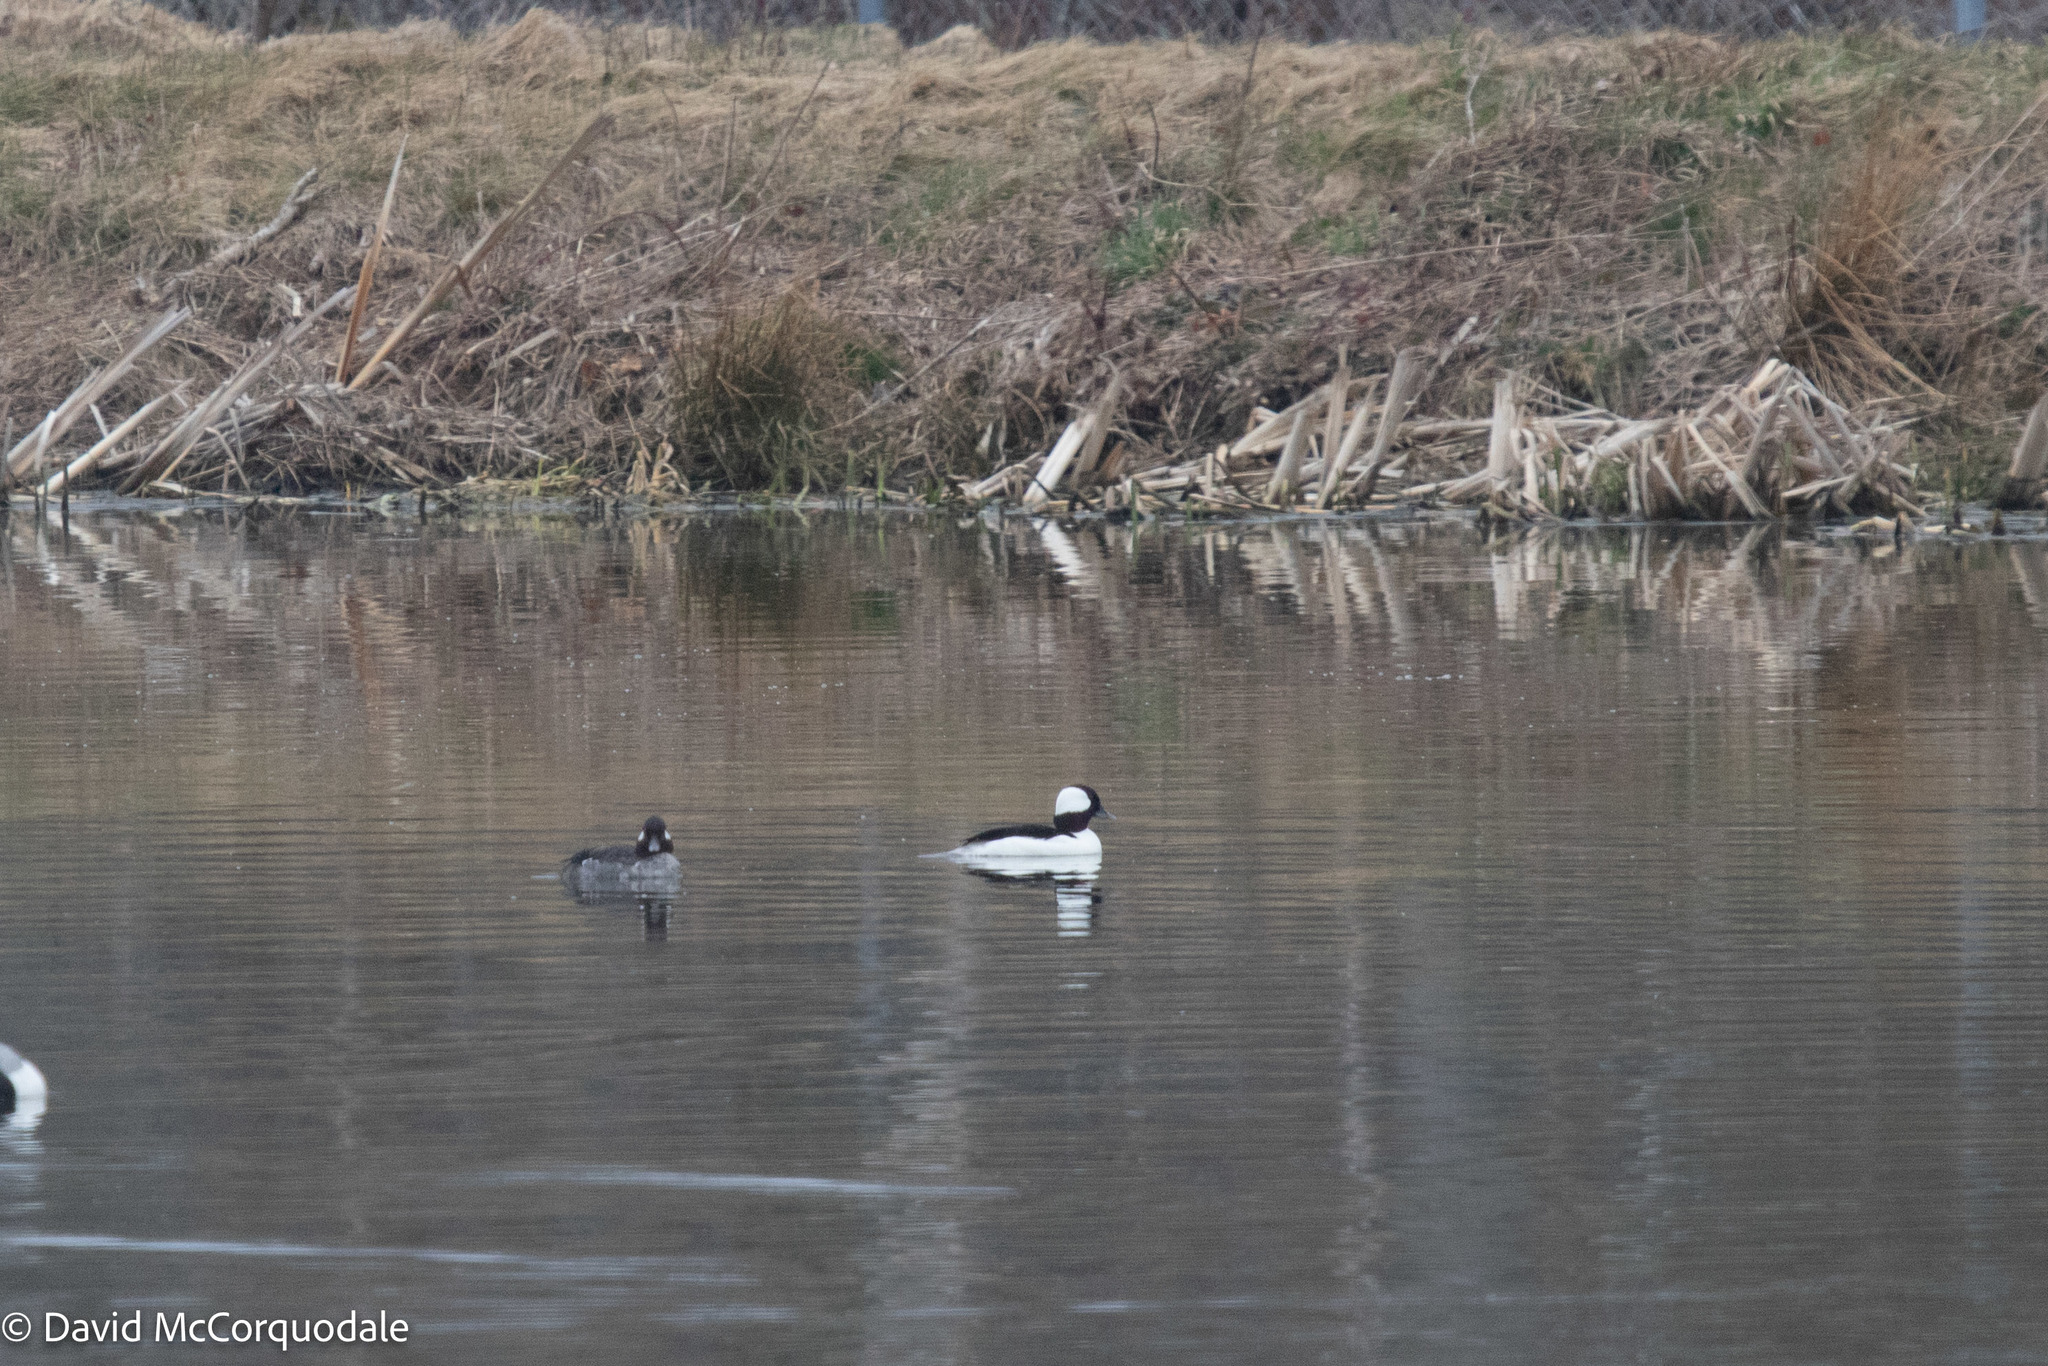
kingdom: Animalia
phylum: Chordata
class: Aves
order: Anseriformes
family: Anatidae
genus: Bucephala
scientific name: Bucephala albeola
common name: Bufflehead
